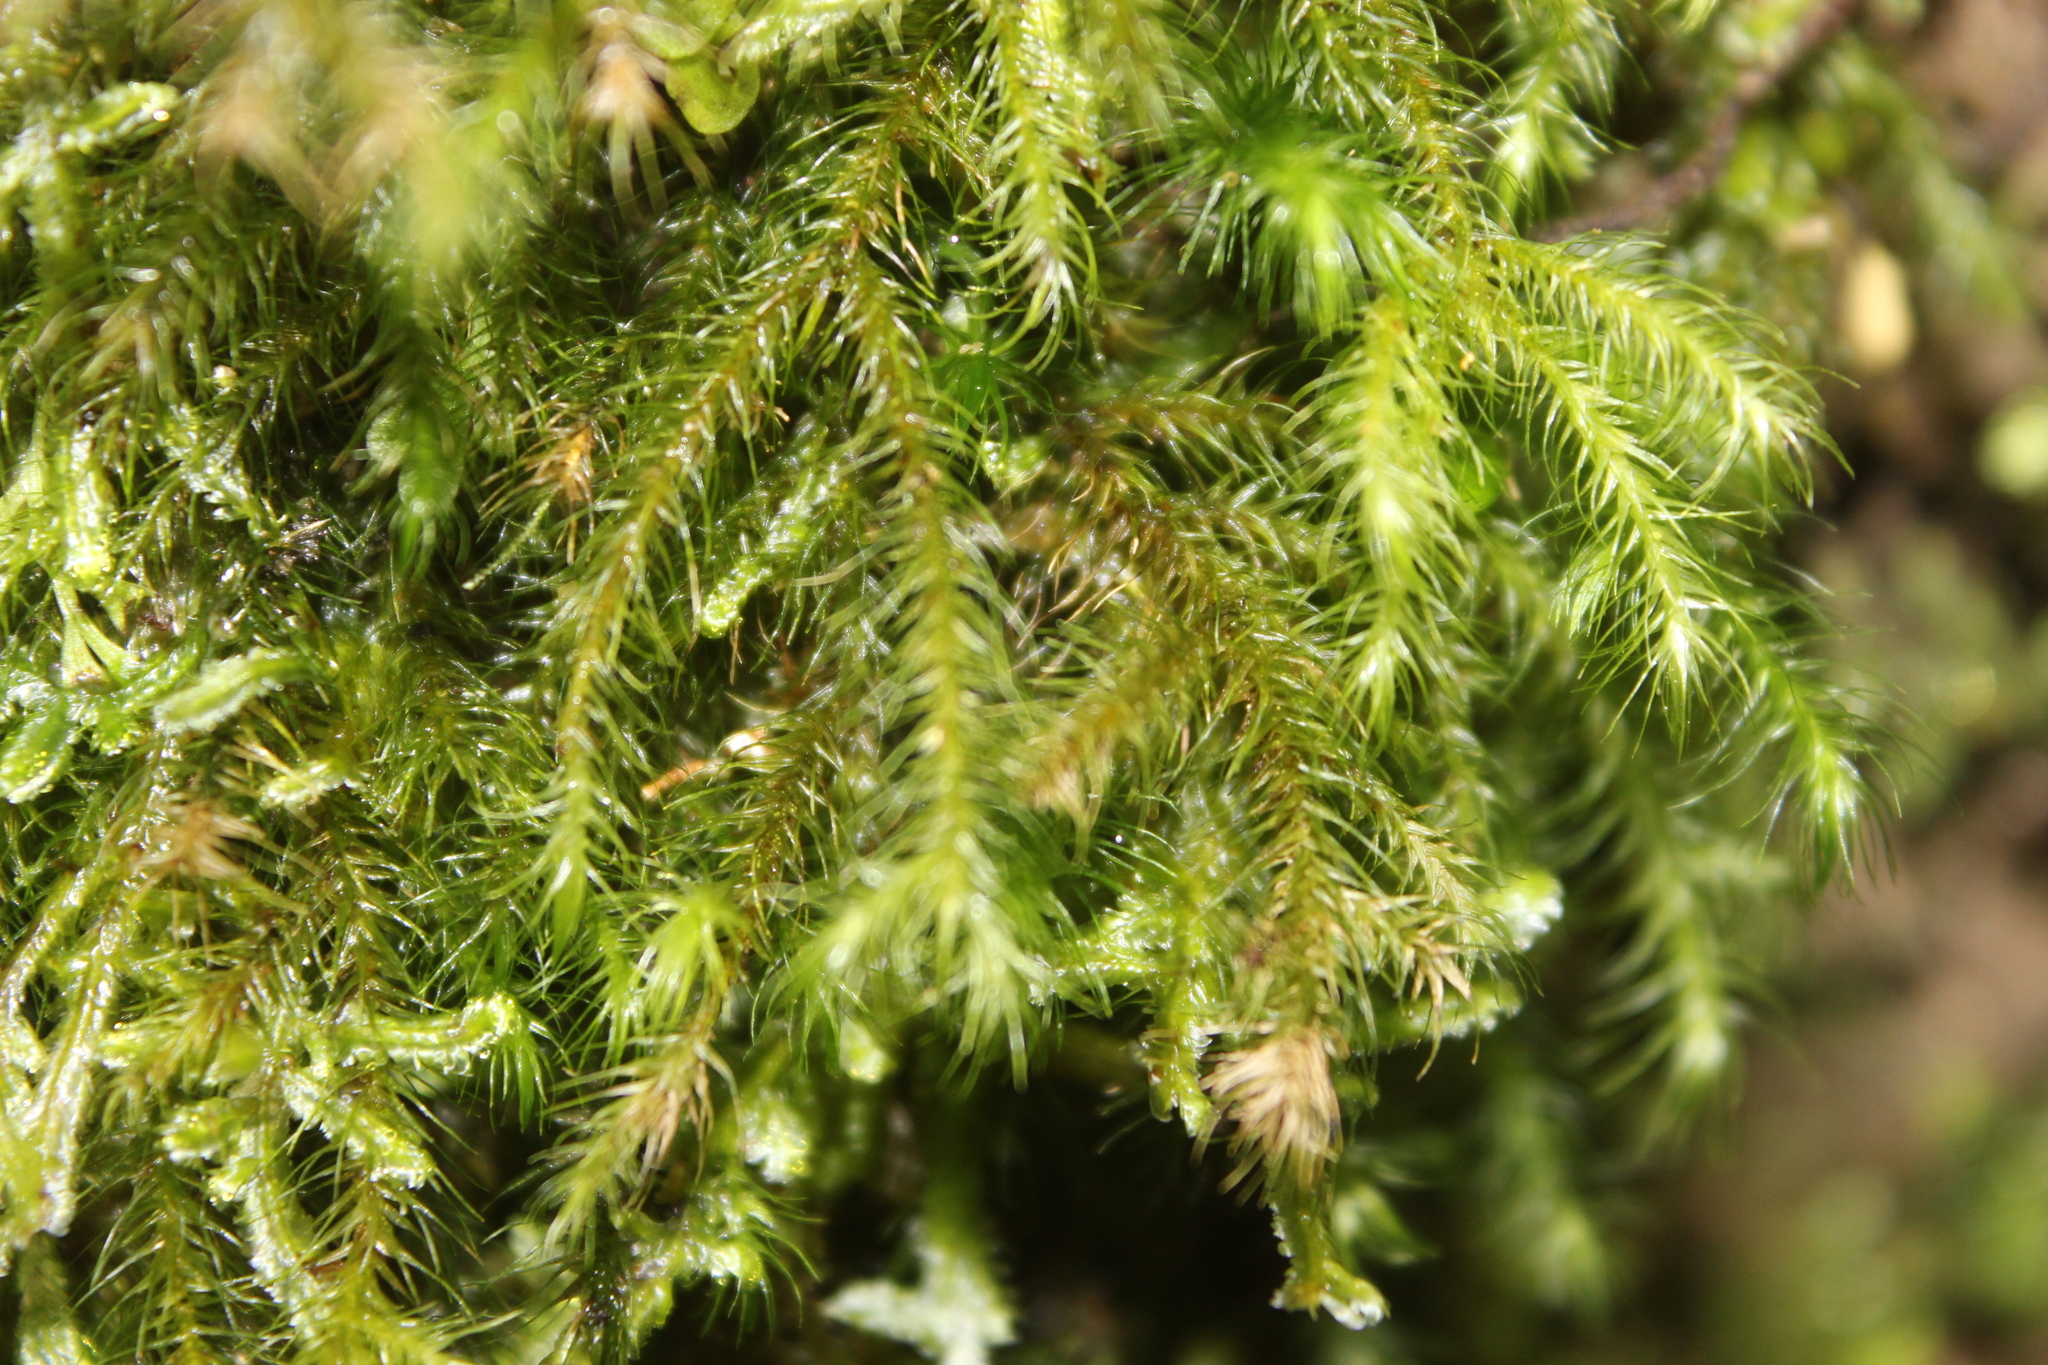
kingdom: Plantae
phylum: Bryophyta
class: Bryopsida
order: Hypnales
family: Neckeraceae
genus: Echinodiopsis
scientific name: Echinodiopsis hispida
